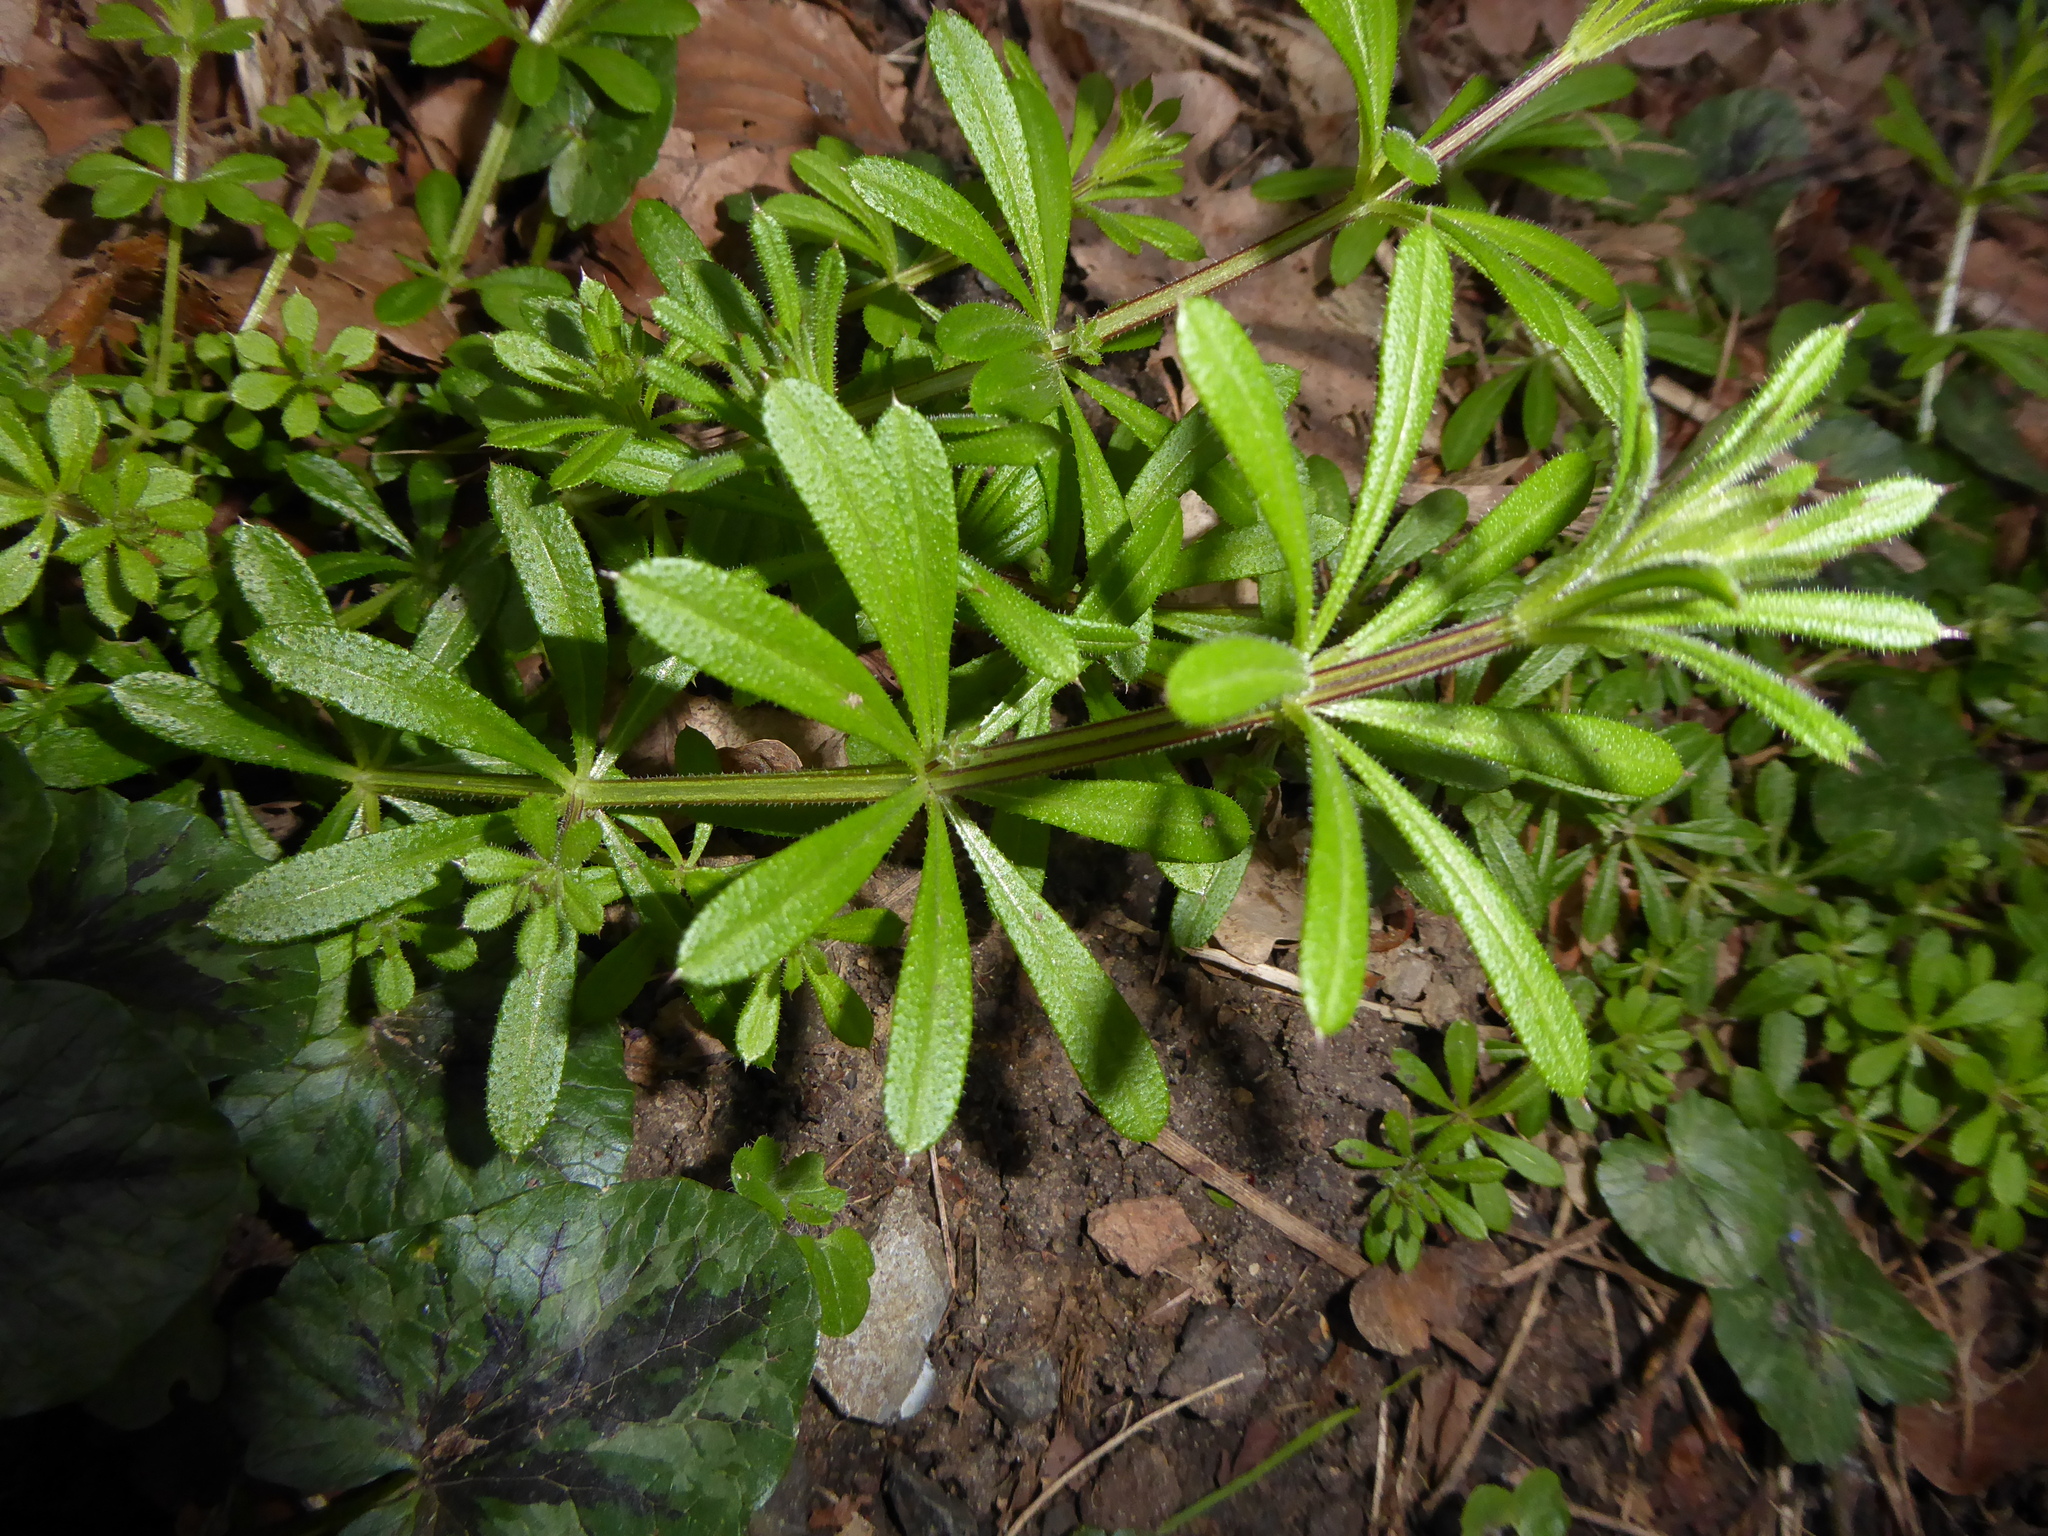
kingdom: Plantae
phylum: Tracheophyta
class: Magnoliopsida
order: Gentianales
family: Rubiaceae
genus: Galium
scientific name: Galium aparine
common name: Cleavers
